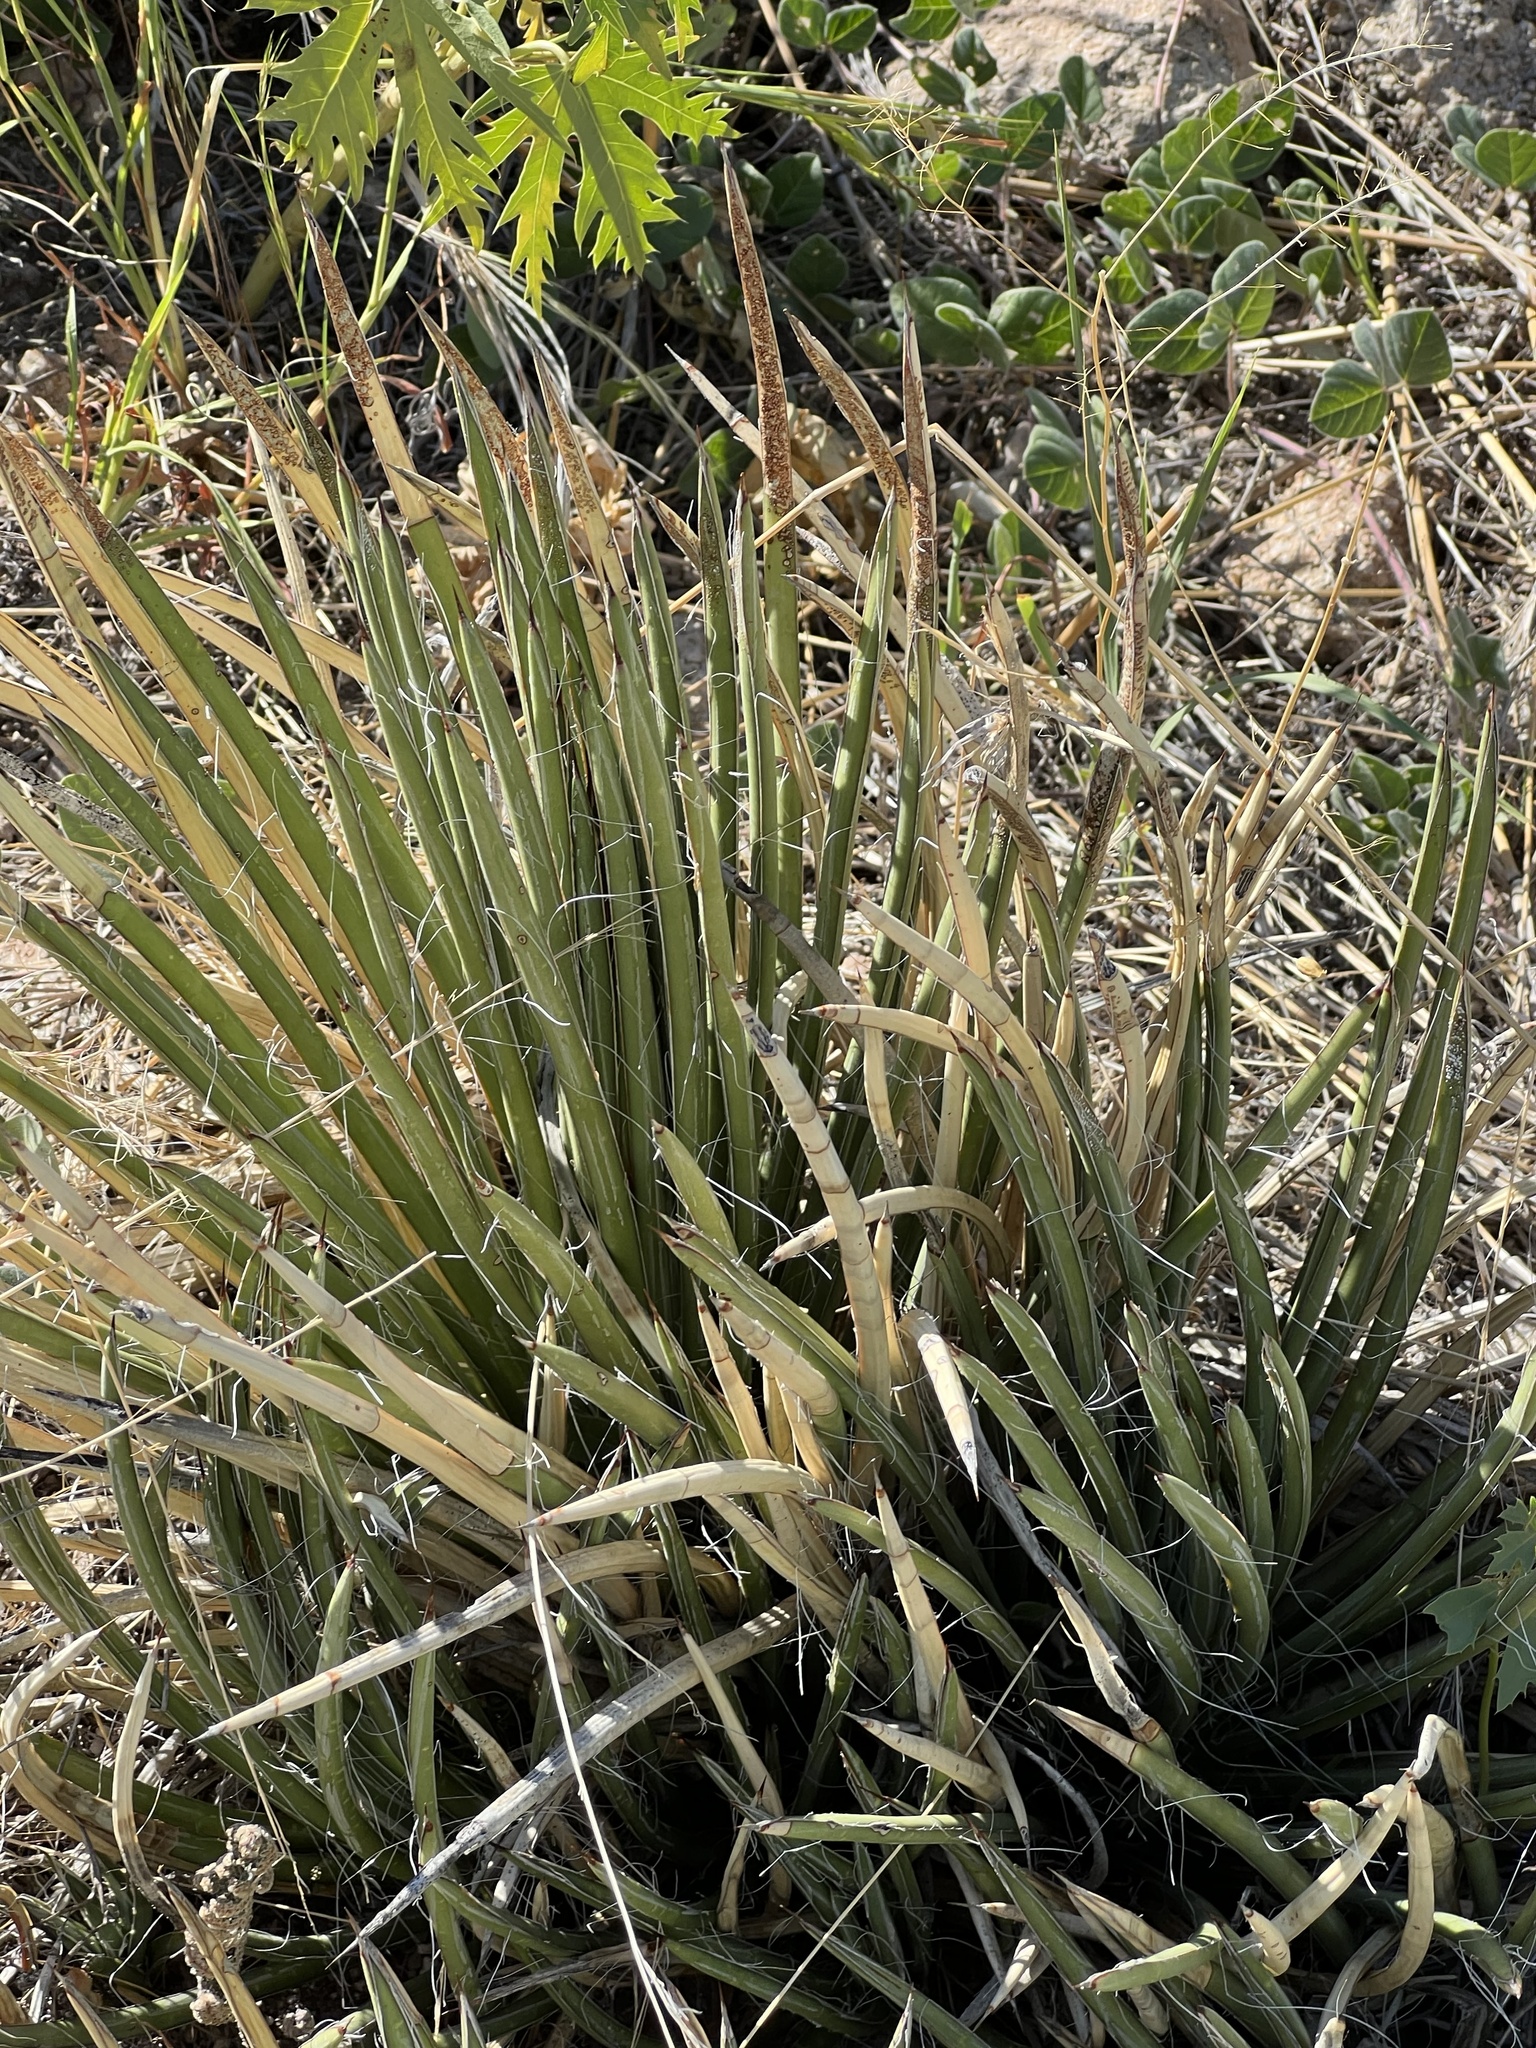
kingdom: Plantae
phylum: Tracheophyta
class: Liliopsida
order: Asparagales
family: Asparagaceae
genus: Agave
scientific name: Agave schottii
